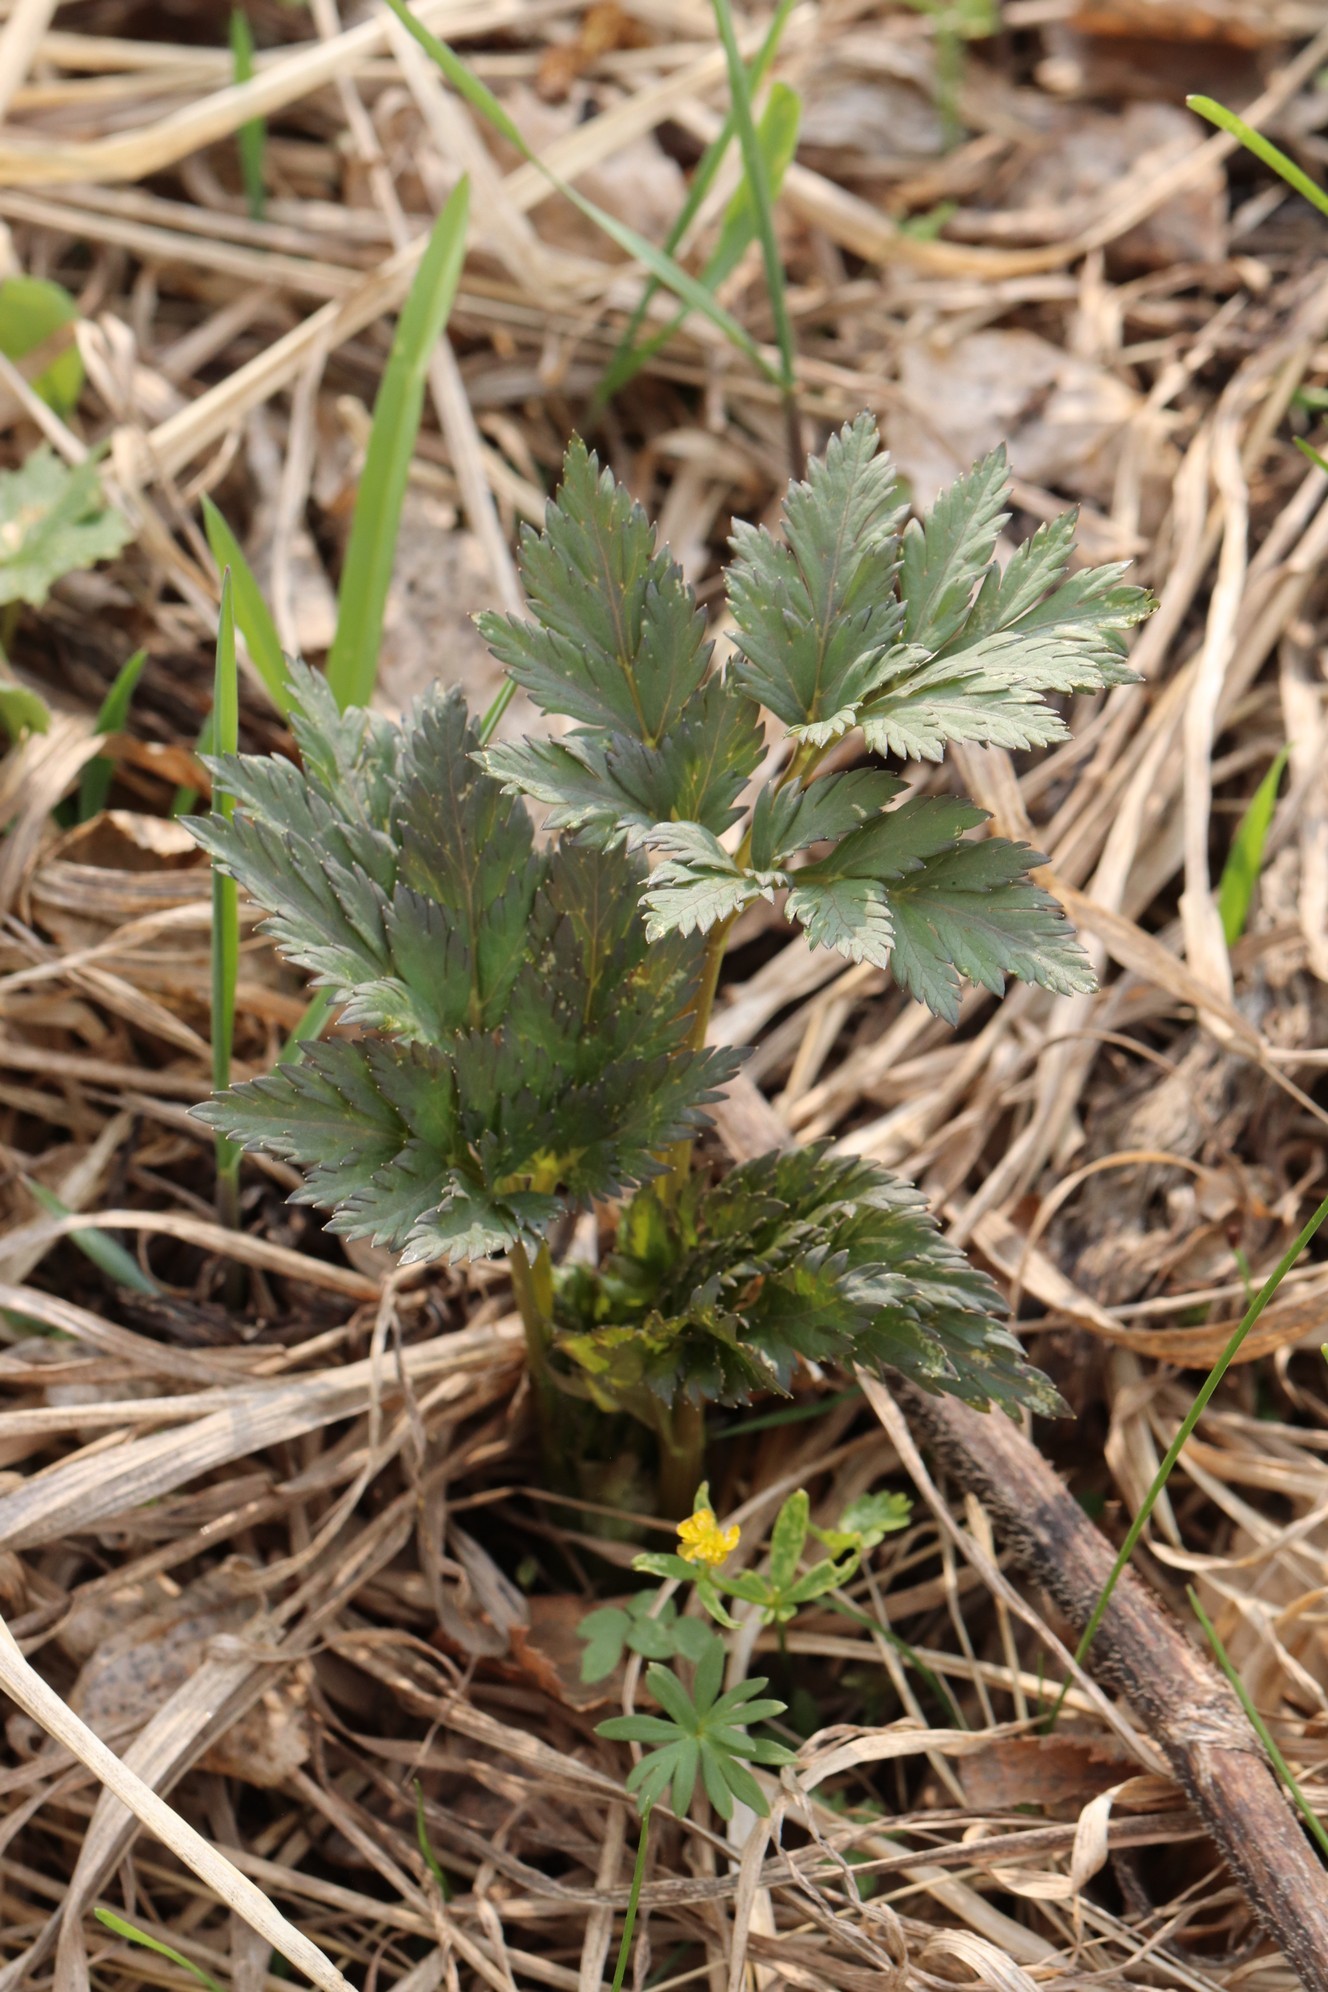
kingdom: Plantae
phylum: Tracheophyta
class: Magnoliopsida
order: Apiales
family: Apiaceae
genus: Pleurospermum
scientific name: Pleurospermum uralense
